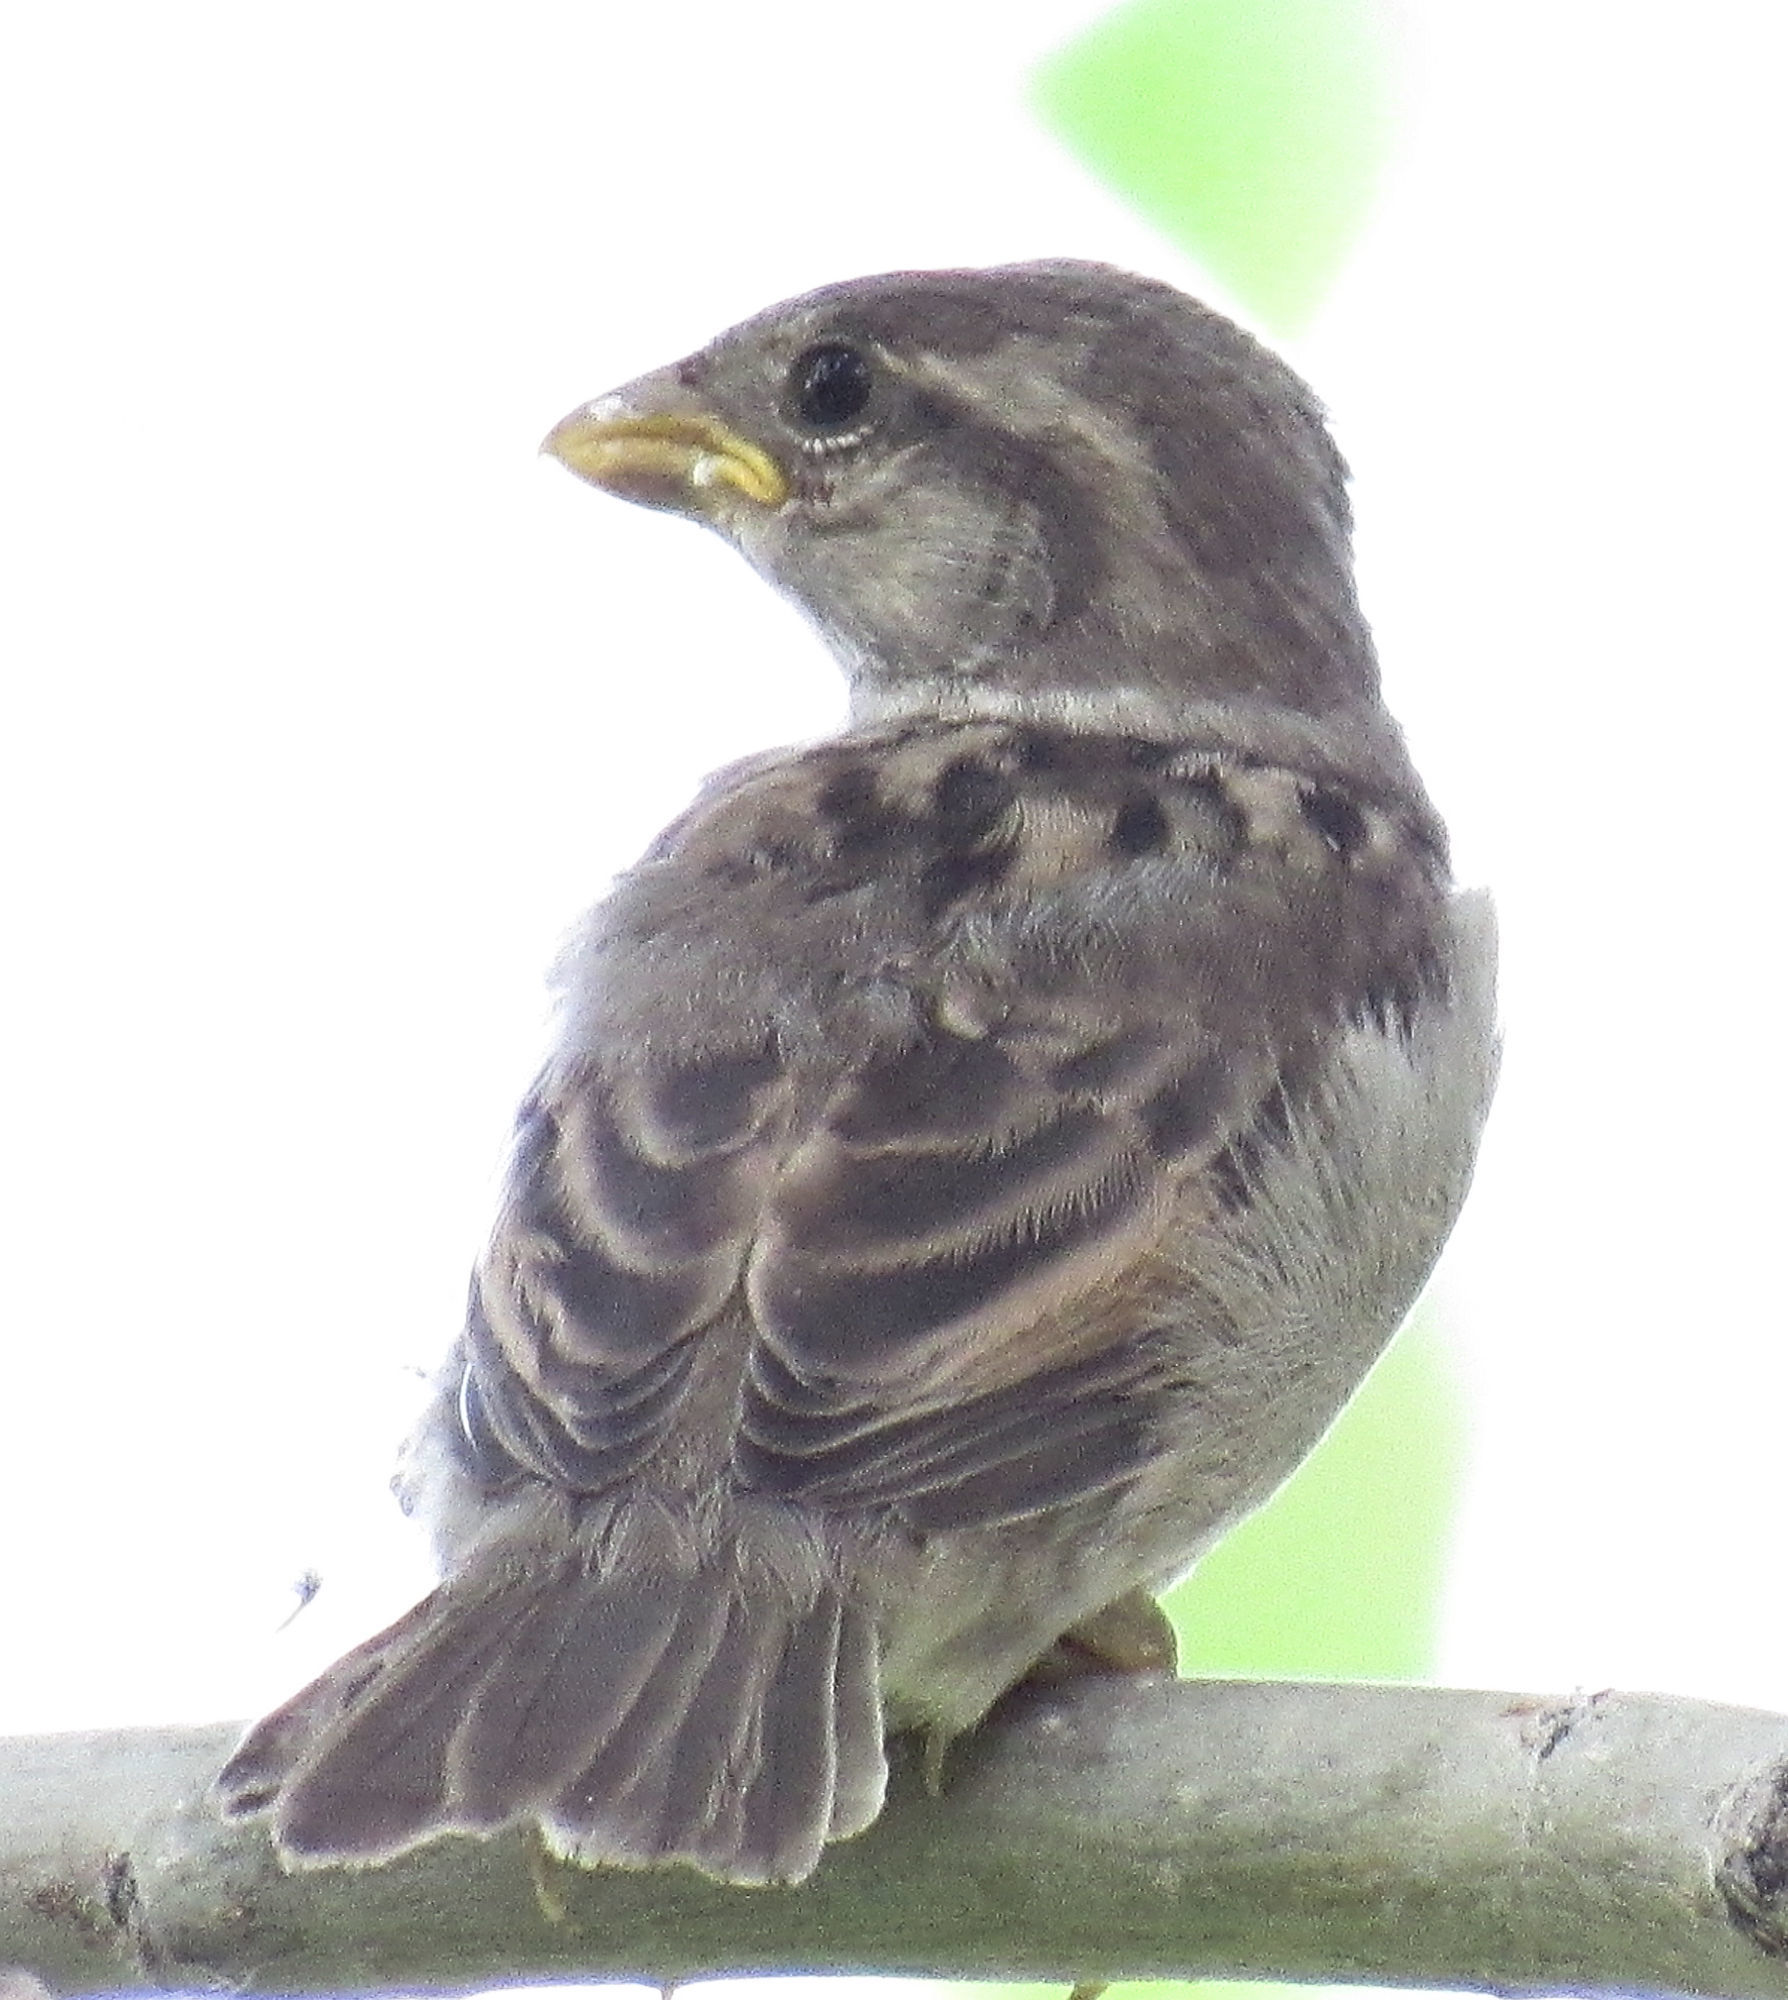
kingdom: Animalia
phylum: Chordata
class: Aves
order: Passeriformes
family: Passeridae
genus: Passer
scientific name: Passer domesticus
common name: House sparrow
